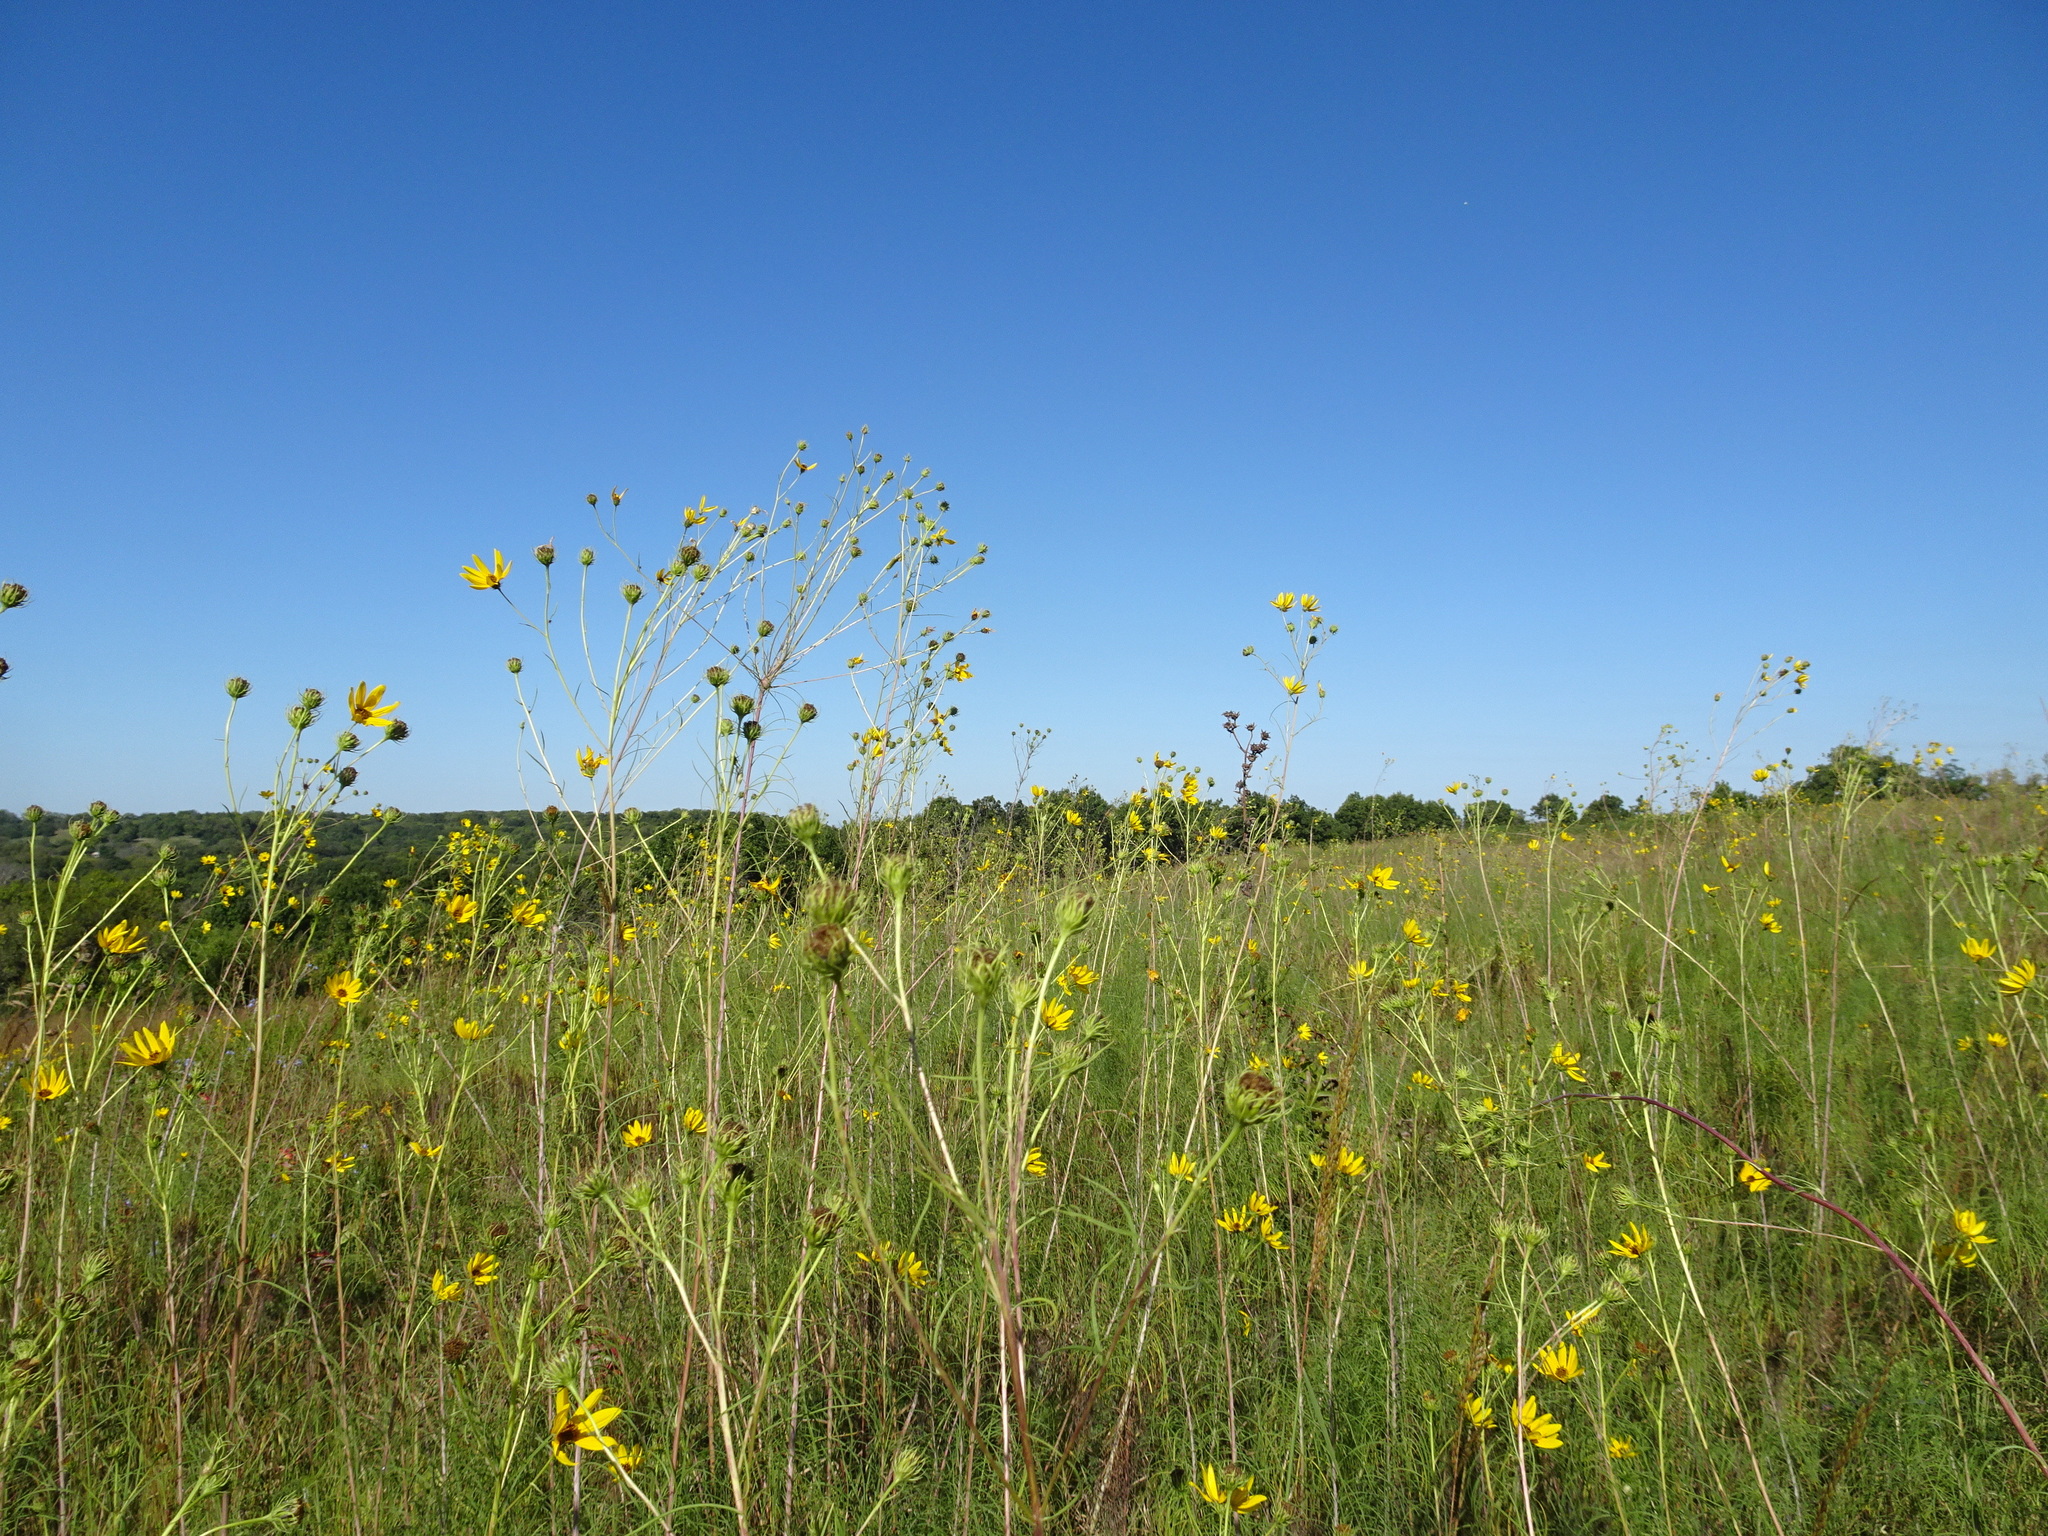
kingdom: Plantae
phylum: Tracheophyta
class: Magnoliopsida
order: Asterales
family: Asteraceae
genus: Helianthus
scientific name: Helianthus salicifolius
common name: Willowleaf sunflower
